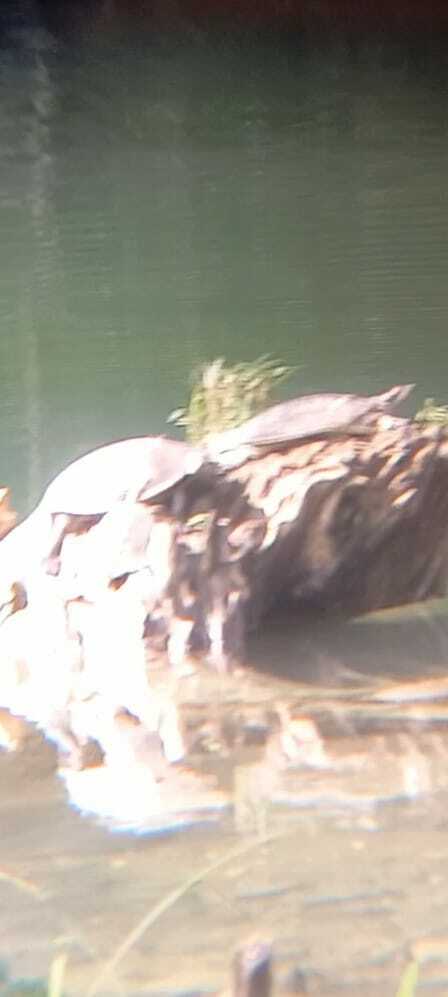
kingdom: Animalia
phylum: Chordata
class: Testudines
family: Trionychidae
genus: Apalone
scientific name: Apalone spinifera
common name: Spiny softshell turtle
